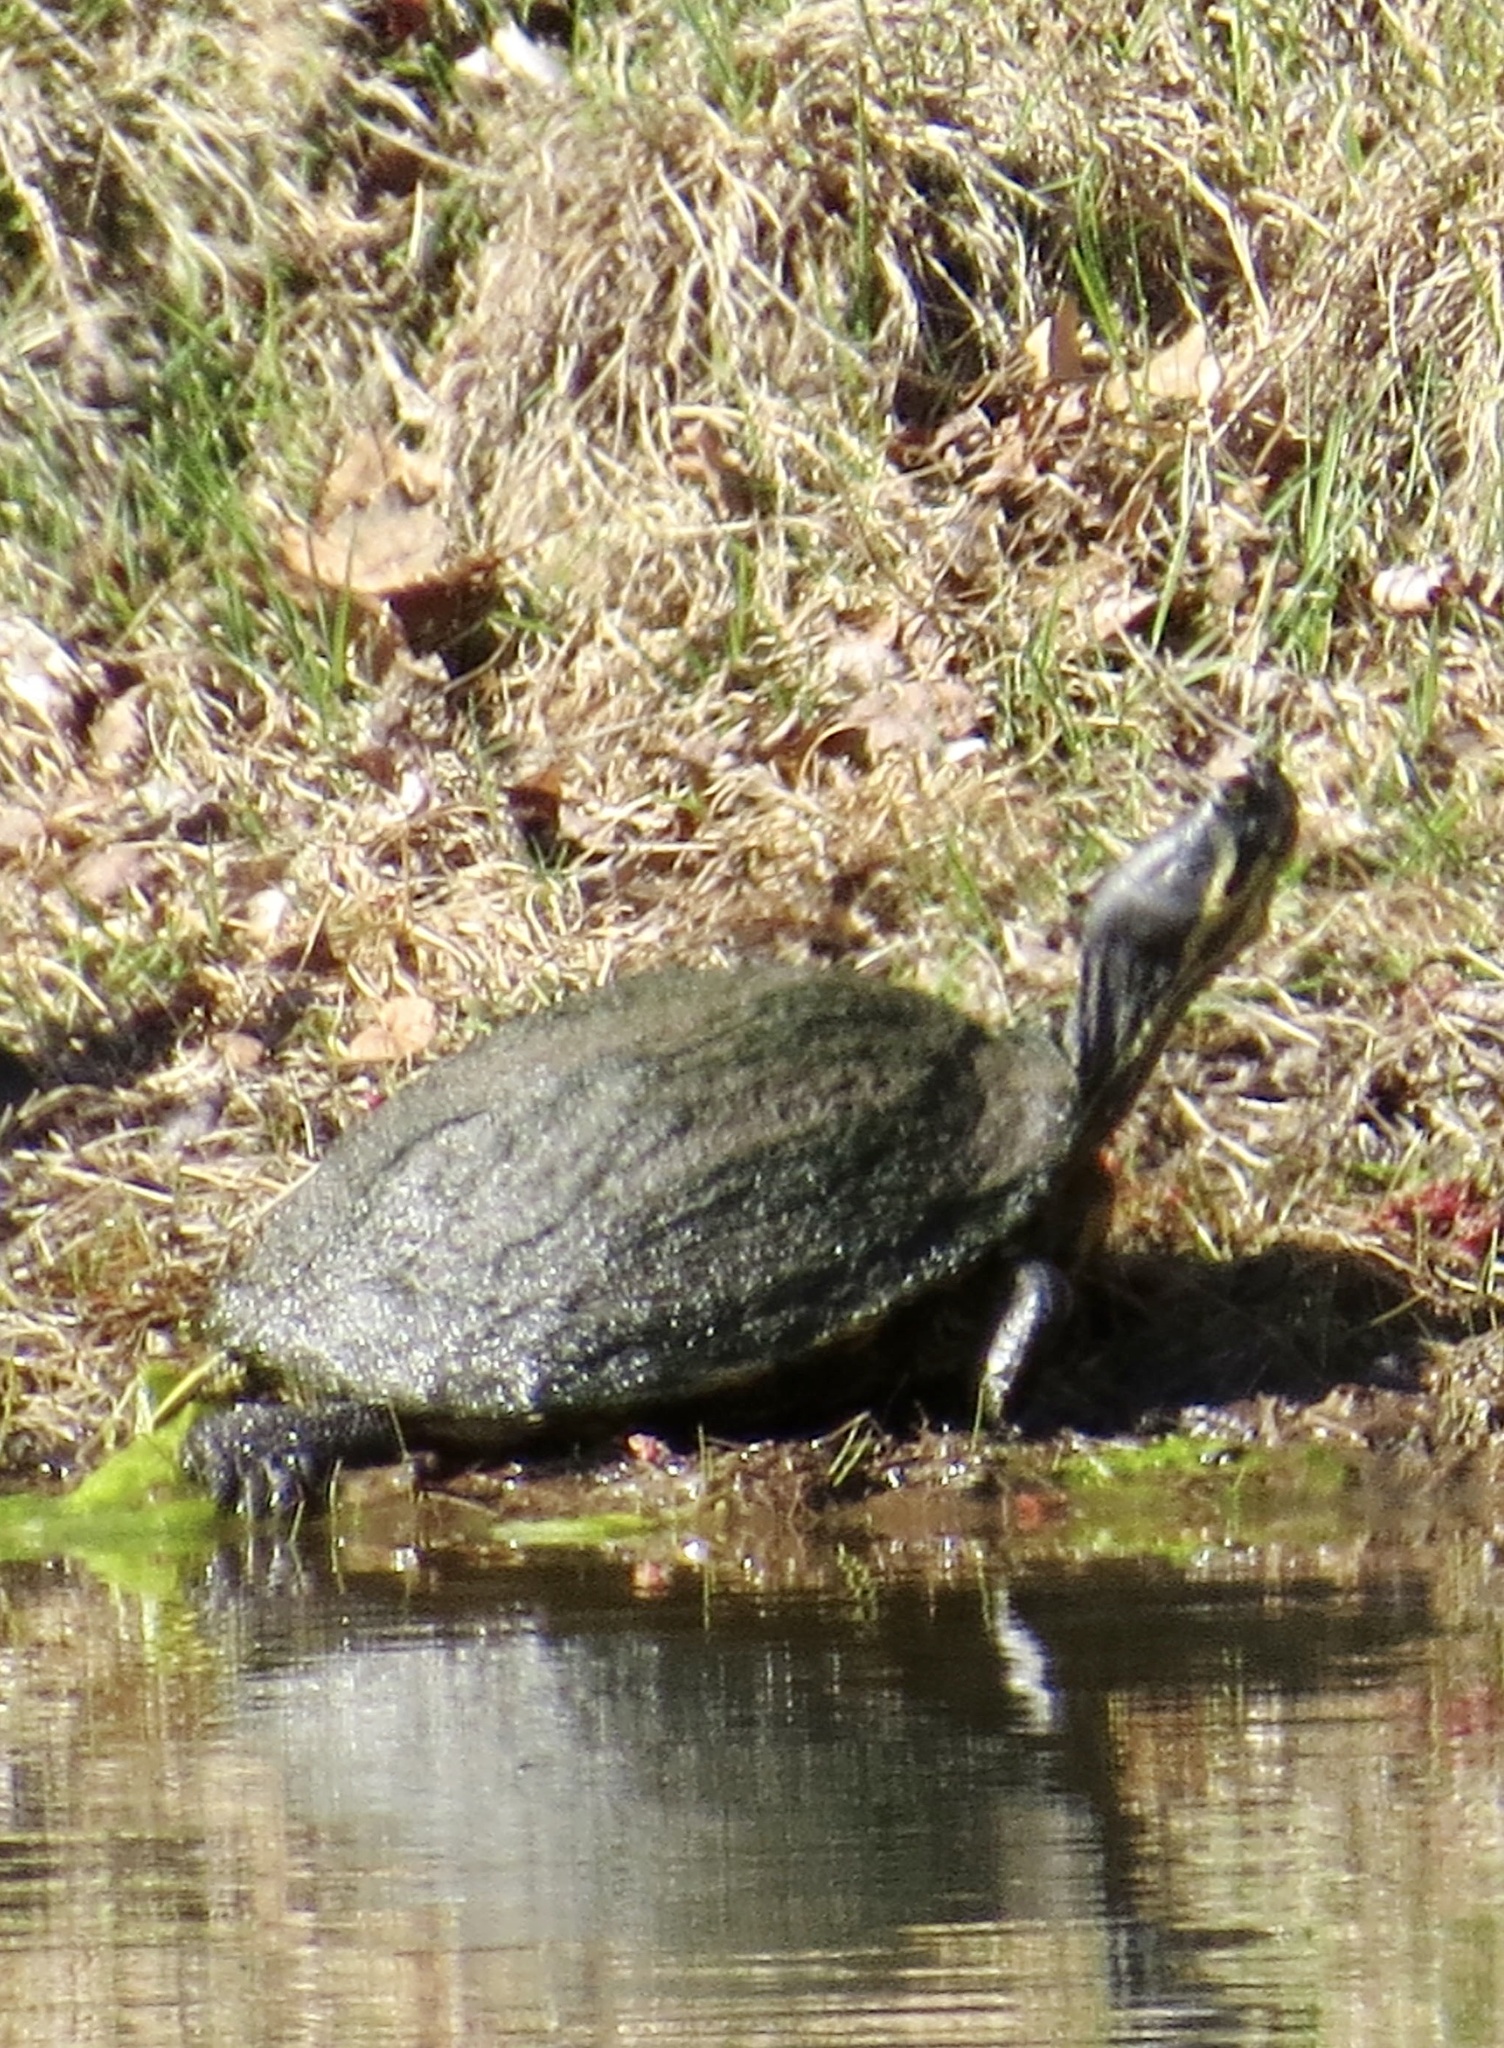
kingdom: Animalia
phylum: Chordata
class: Testudines
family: Emydidae
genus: Trachemys
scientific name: Trachemys scripta
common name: Slider
